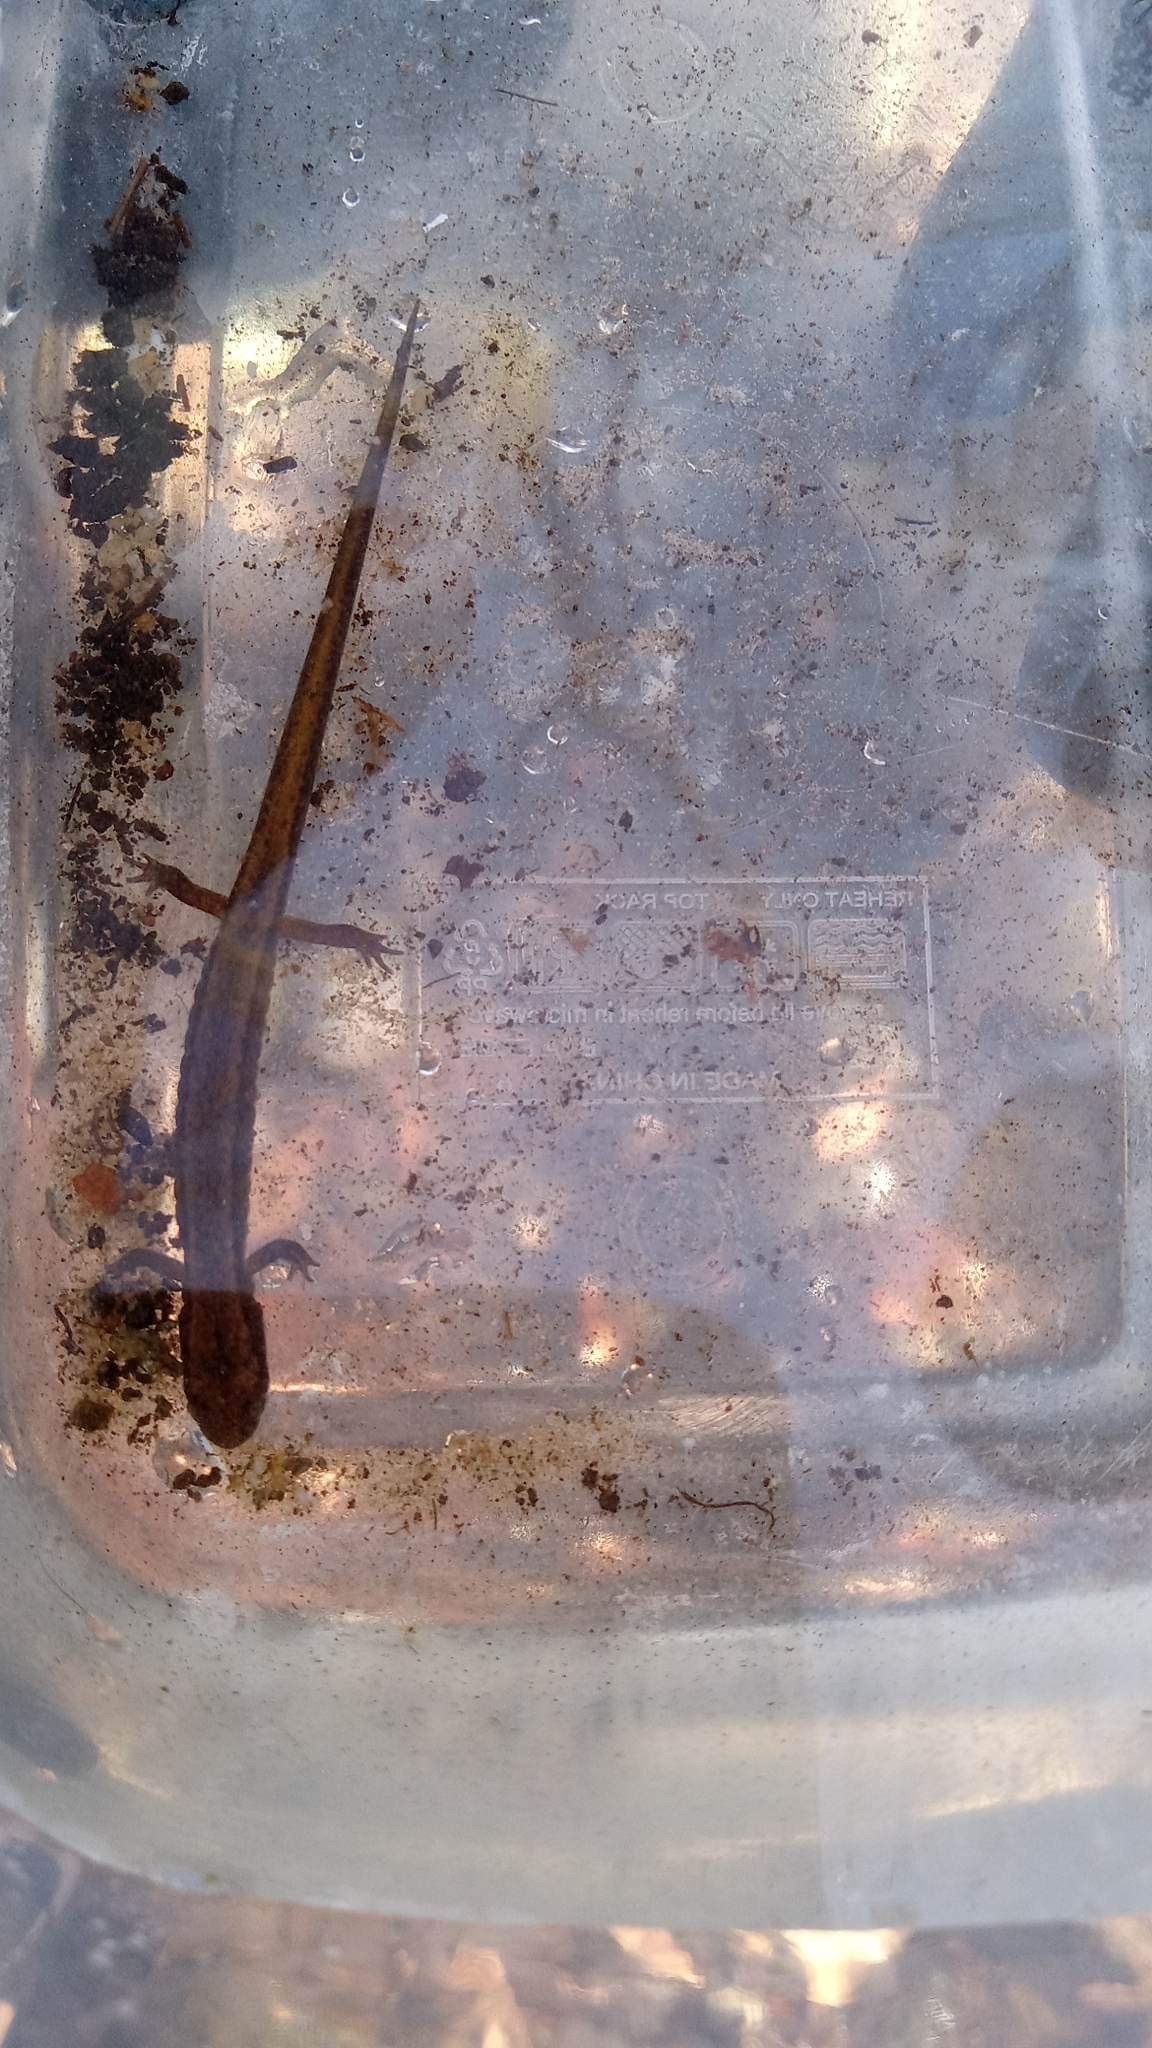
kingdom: Animalia
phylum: Chordata
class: Amphibia
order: Caudata
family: Plethodontidae
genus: Eurycea
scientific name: Eurycea bislineata
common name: Northern two-lined salamander
